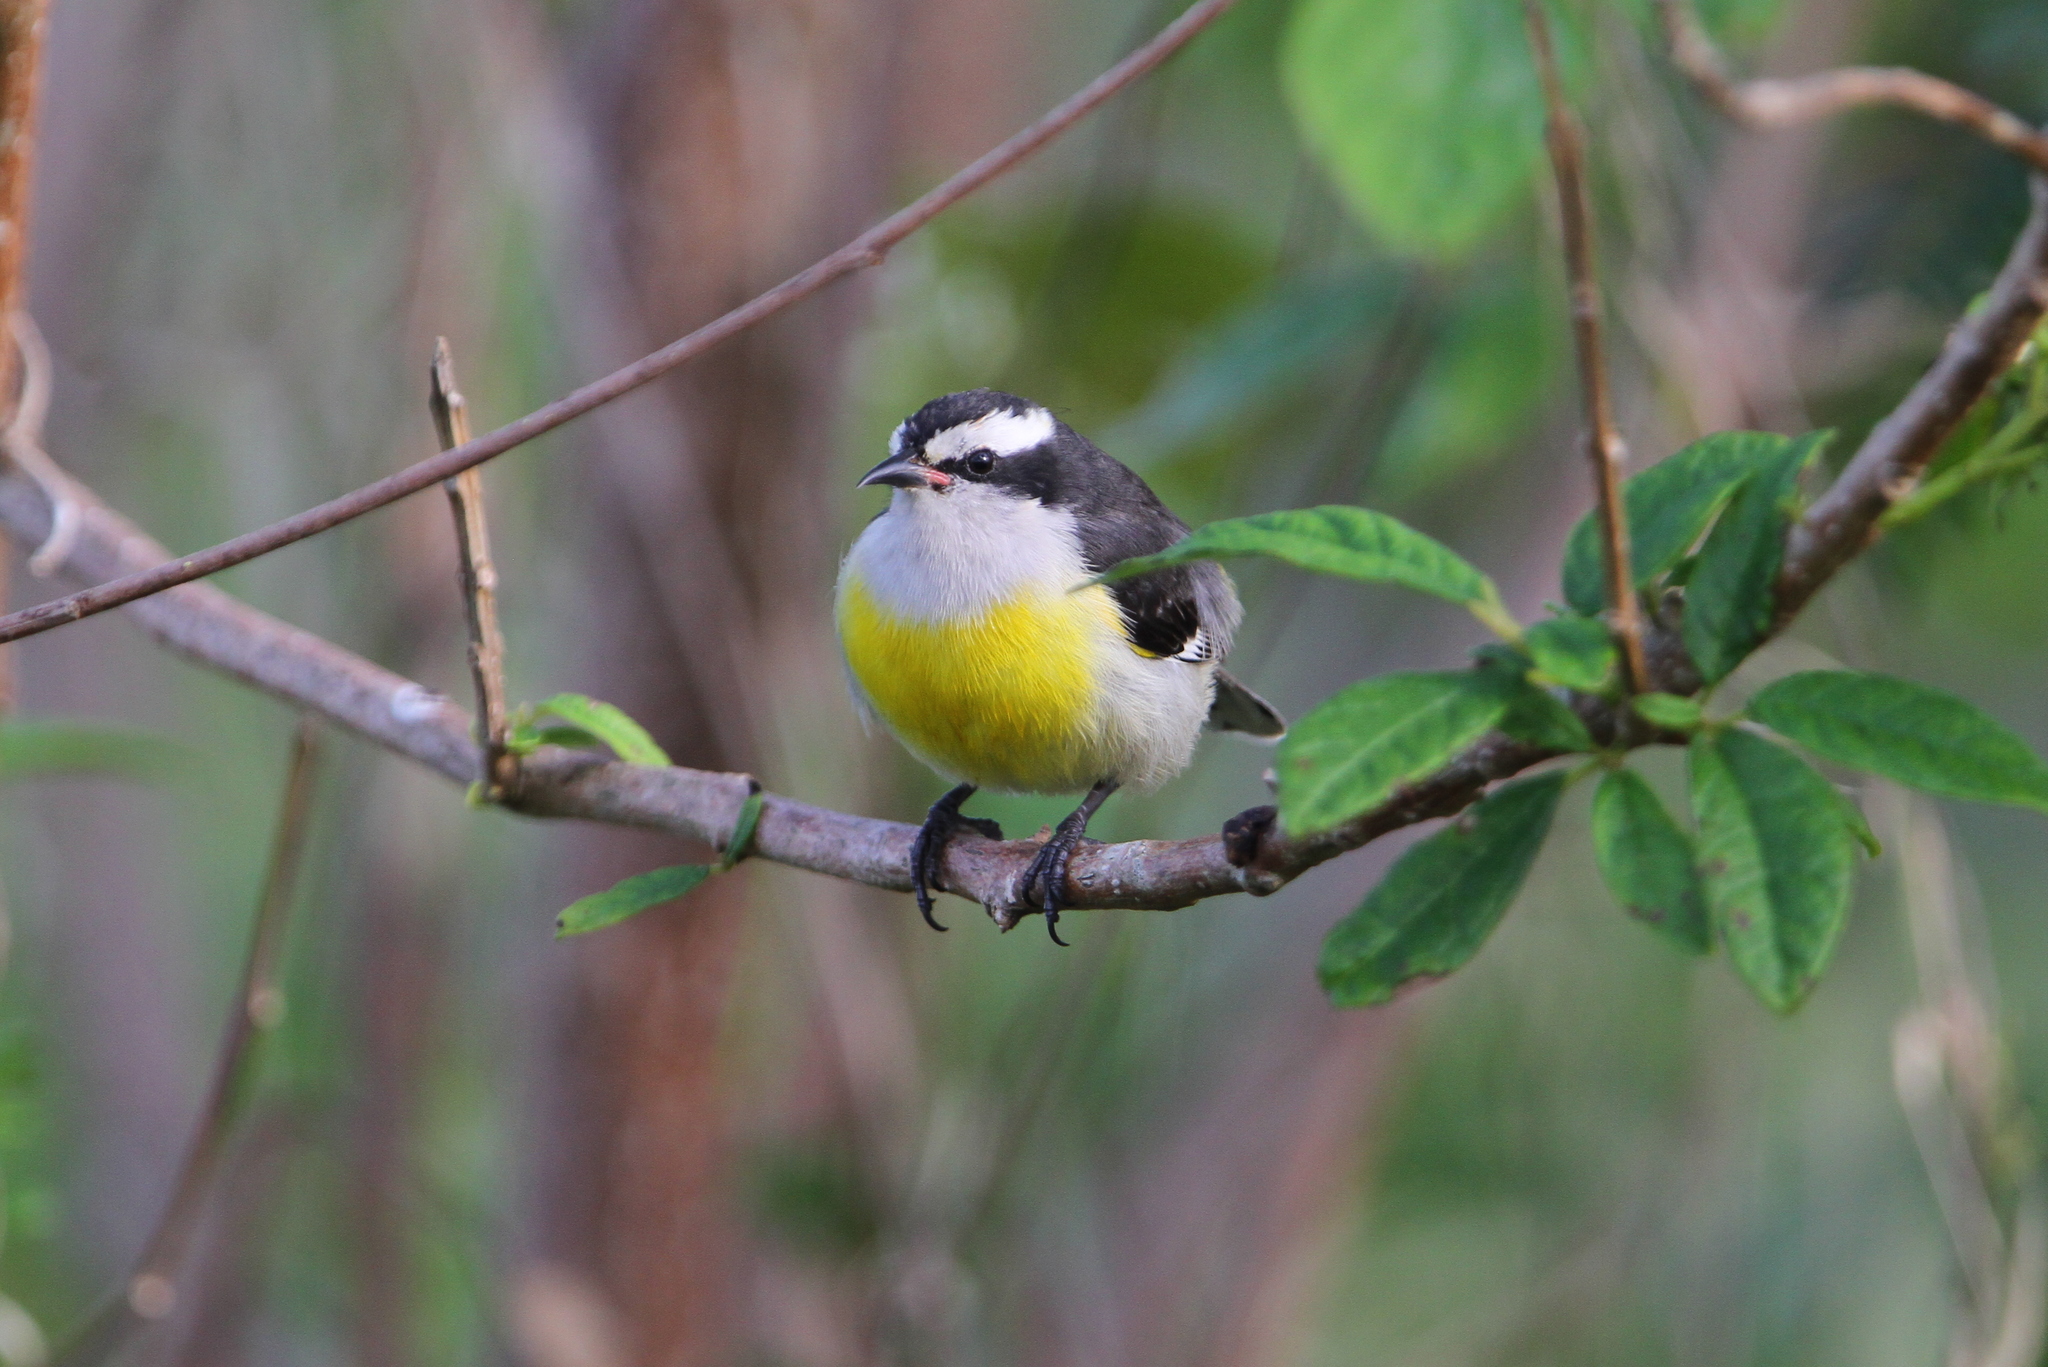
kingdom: Animalia
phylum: Chordata
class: Aves
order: Passeriformes
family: Thraupidae
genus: Coereba
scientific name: Coereba flaveola
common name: Bananaquit
